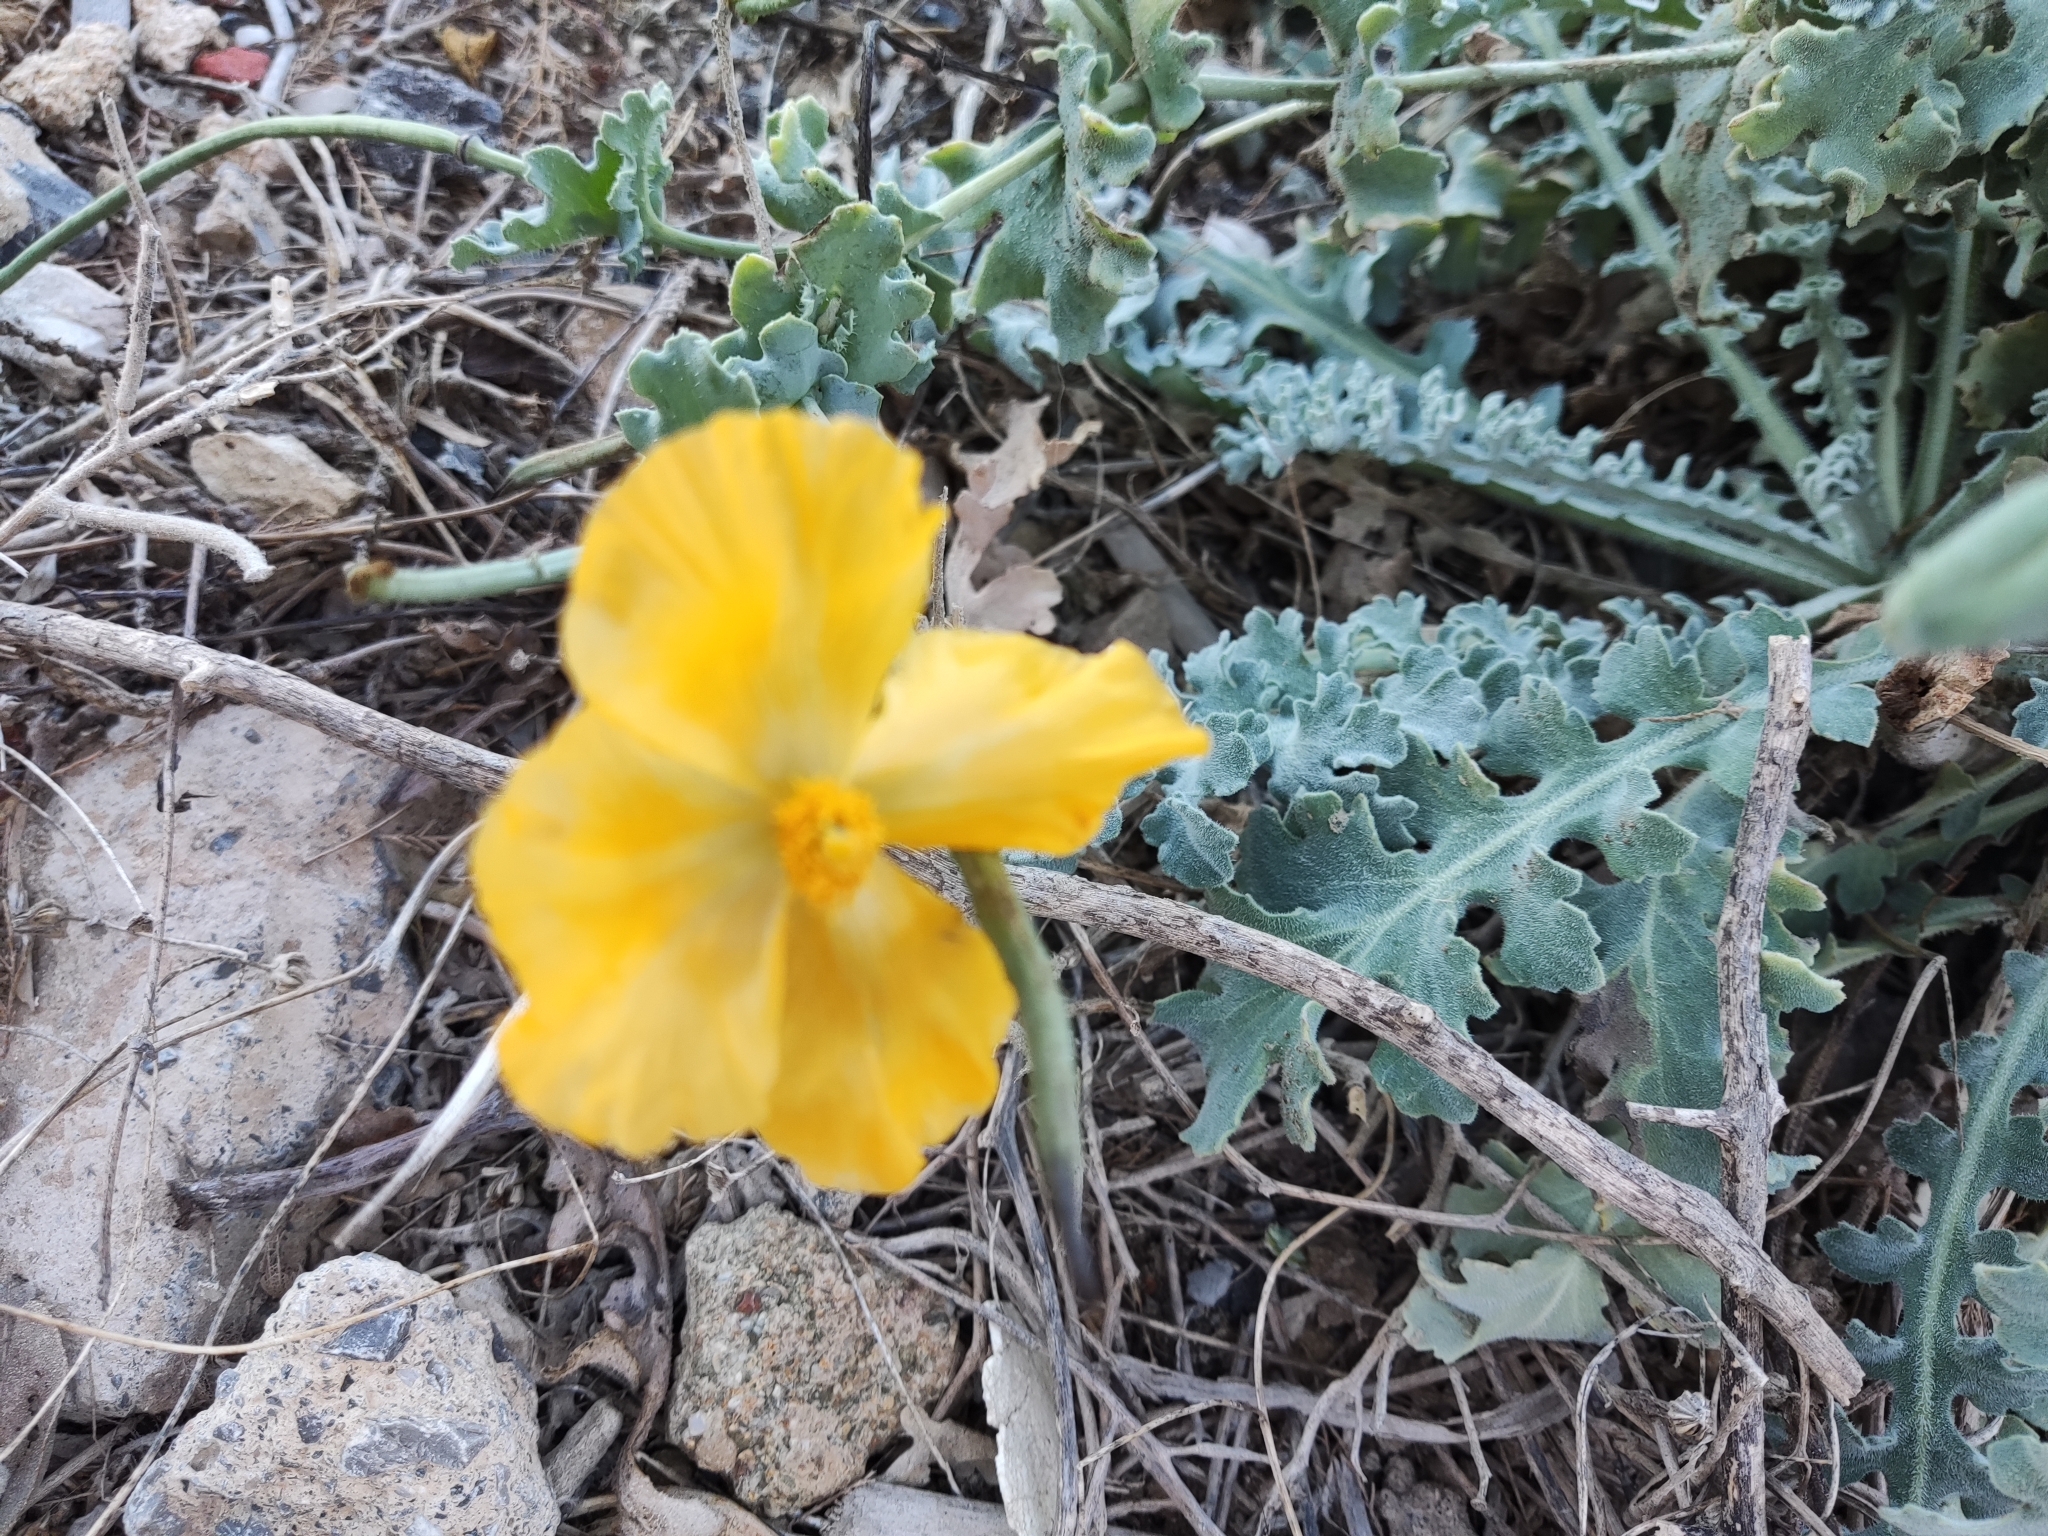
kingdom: Plantae
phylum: Tracheophyta
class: Magnoliopsida
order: Ranunculales
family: Papaveraceae
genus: Glaucium
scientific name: Glaucium flavum
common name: Yellow horned-poppy
